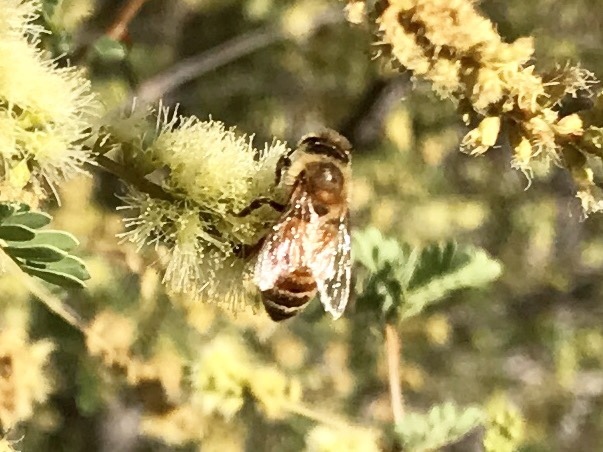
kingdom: Animalia
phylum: Arthropoda
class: Insecta
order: Hymenoptera
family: Apidae
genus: Apis
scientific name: Apis mellifera
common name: Honey bee
